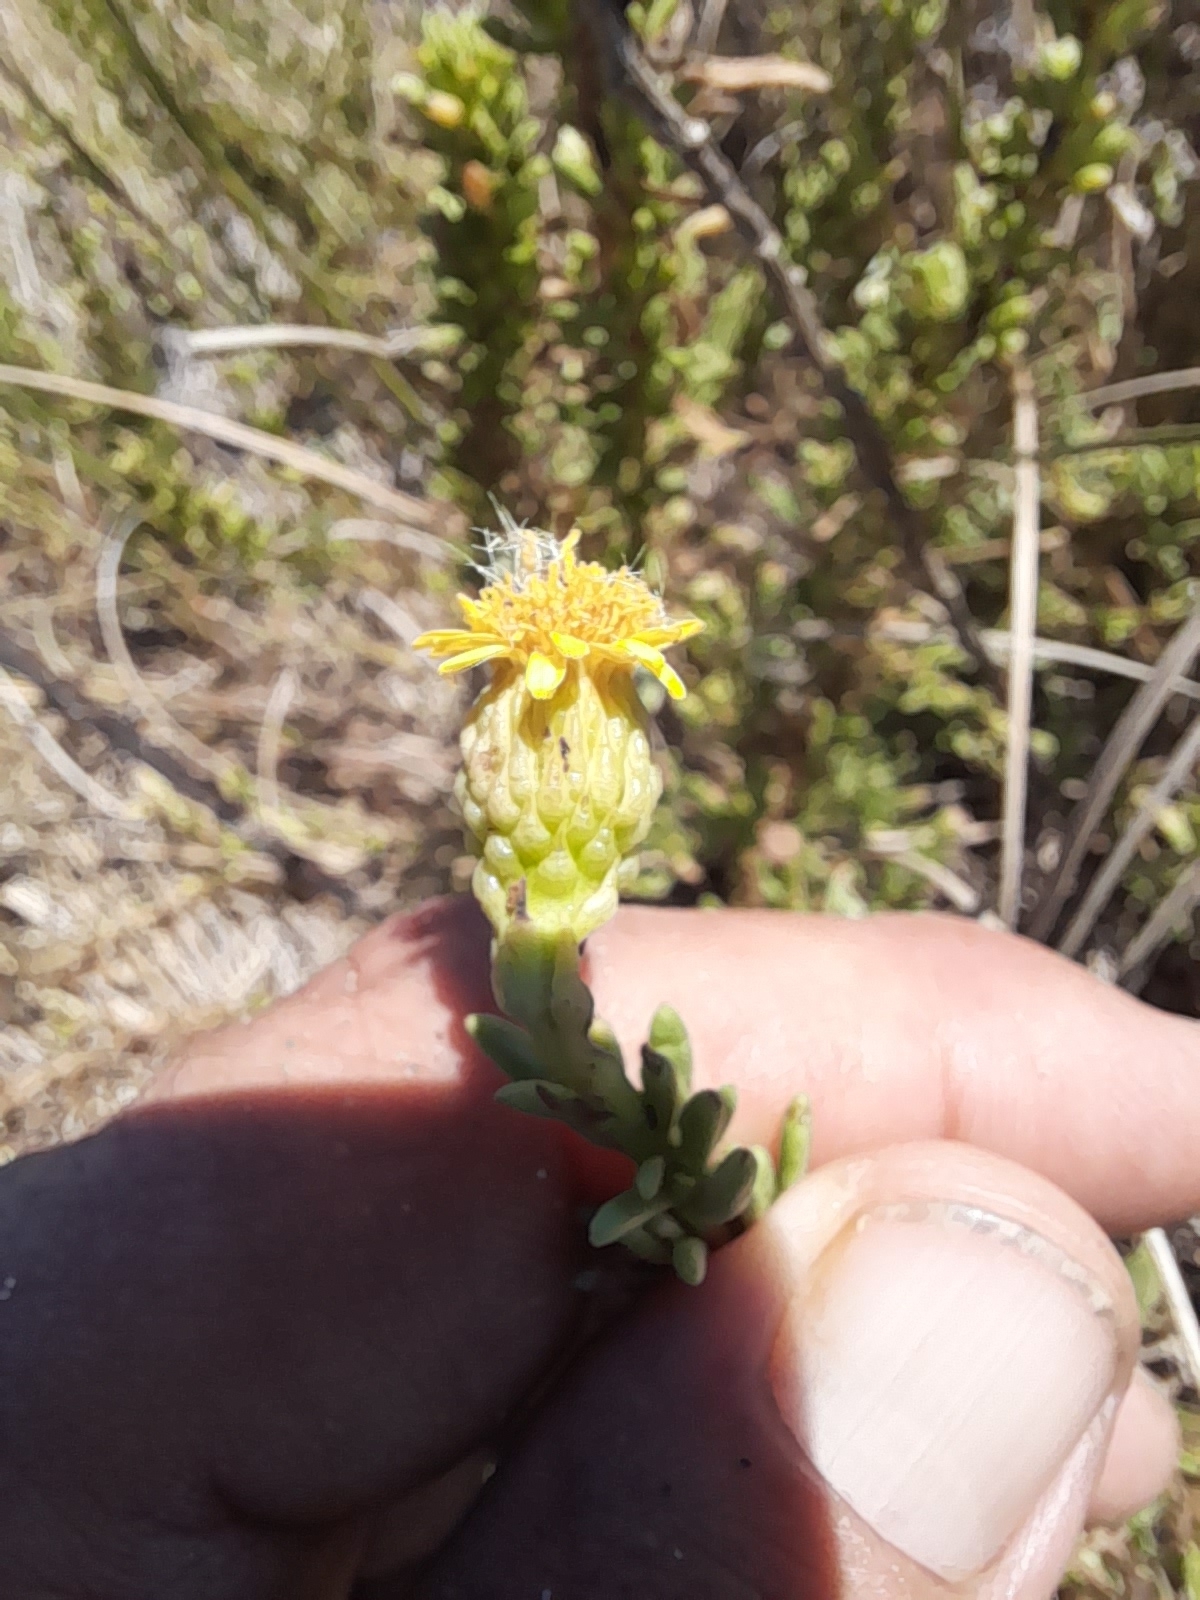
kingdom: Plantae
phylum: Tracheophyta
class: Magnoliopsida
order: Asterales
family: Asteraceae
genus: Limbarda
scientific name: Limbarda crithmoides
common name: Golden samphire
